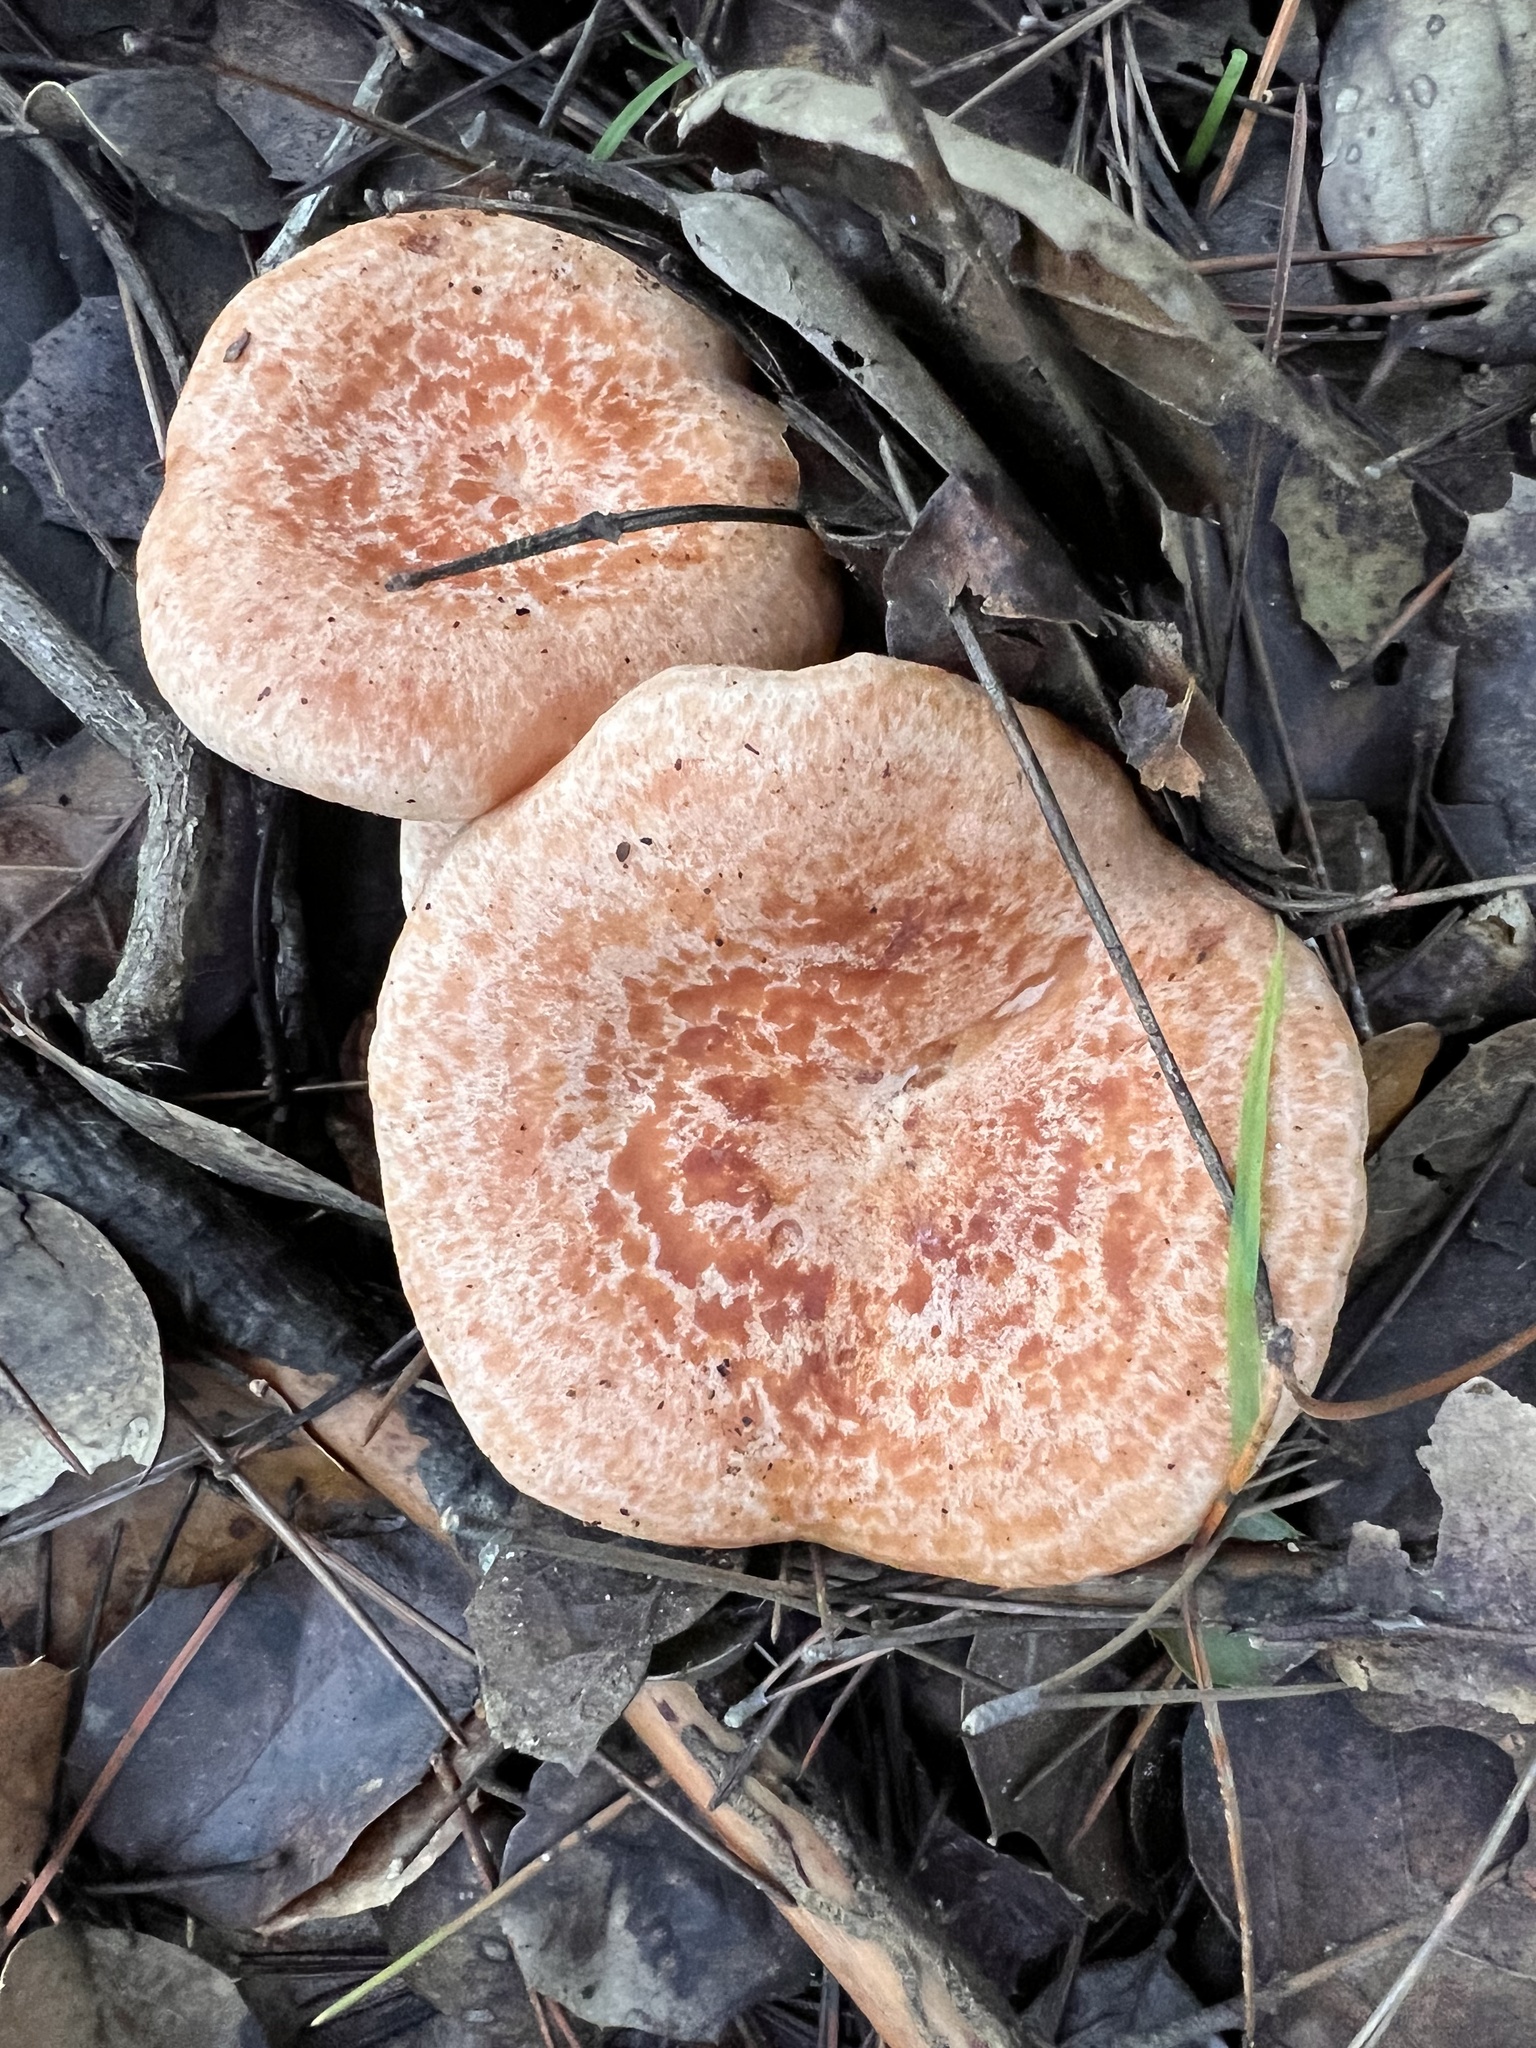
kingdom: Fungi
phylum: Basidiomycota
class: Agaricomycetes
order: Russulales
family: Russulaceae
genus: Lactarius
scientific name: Lactarius xanthogalactus
